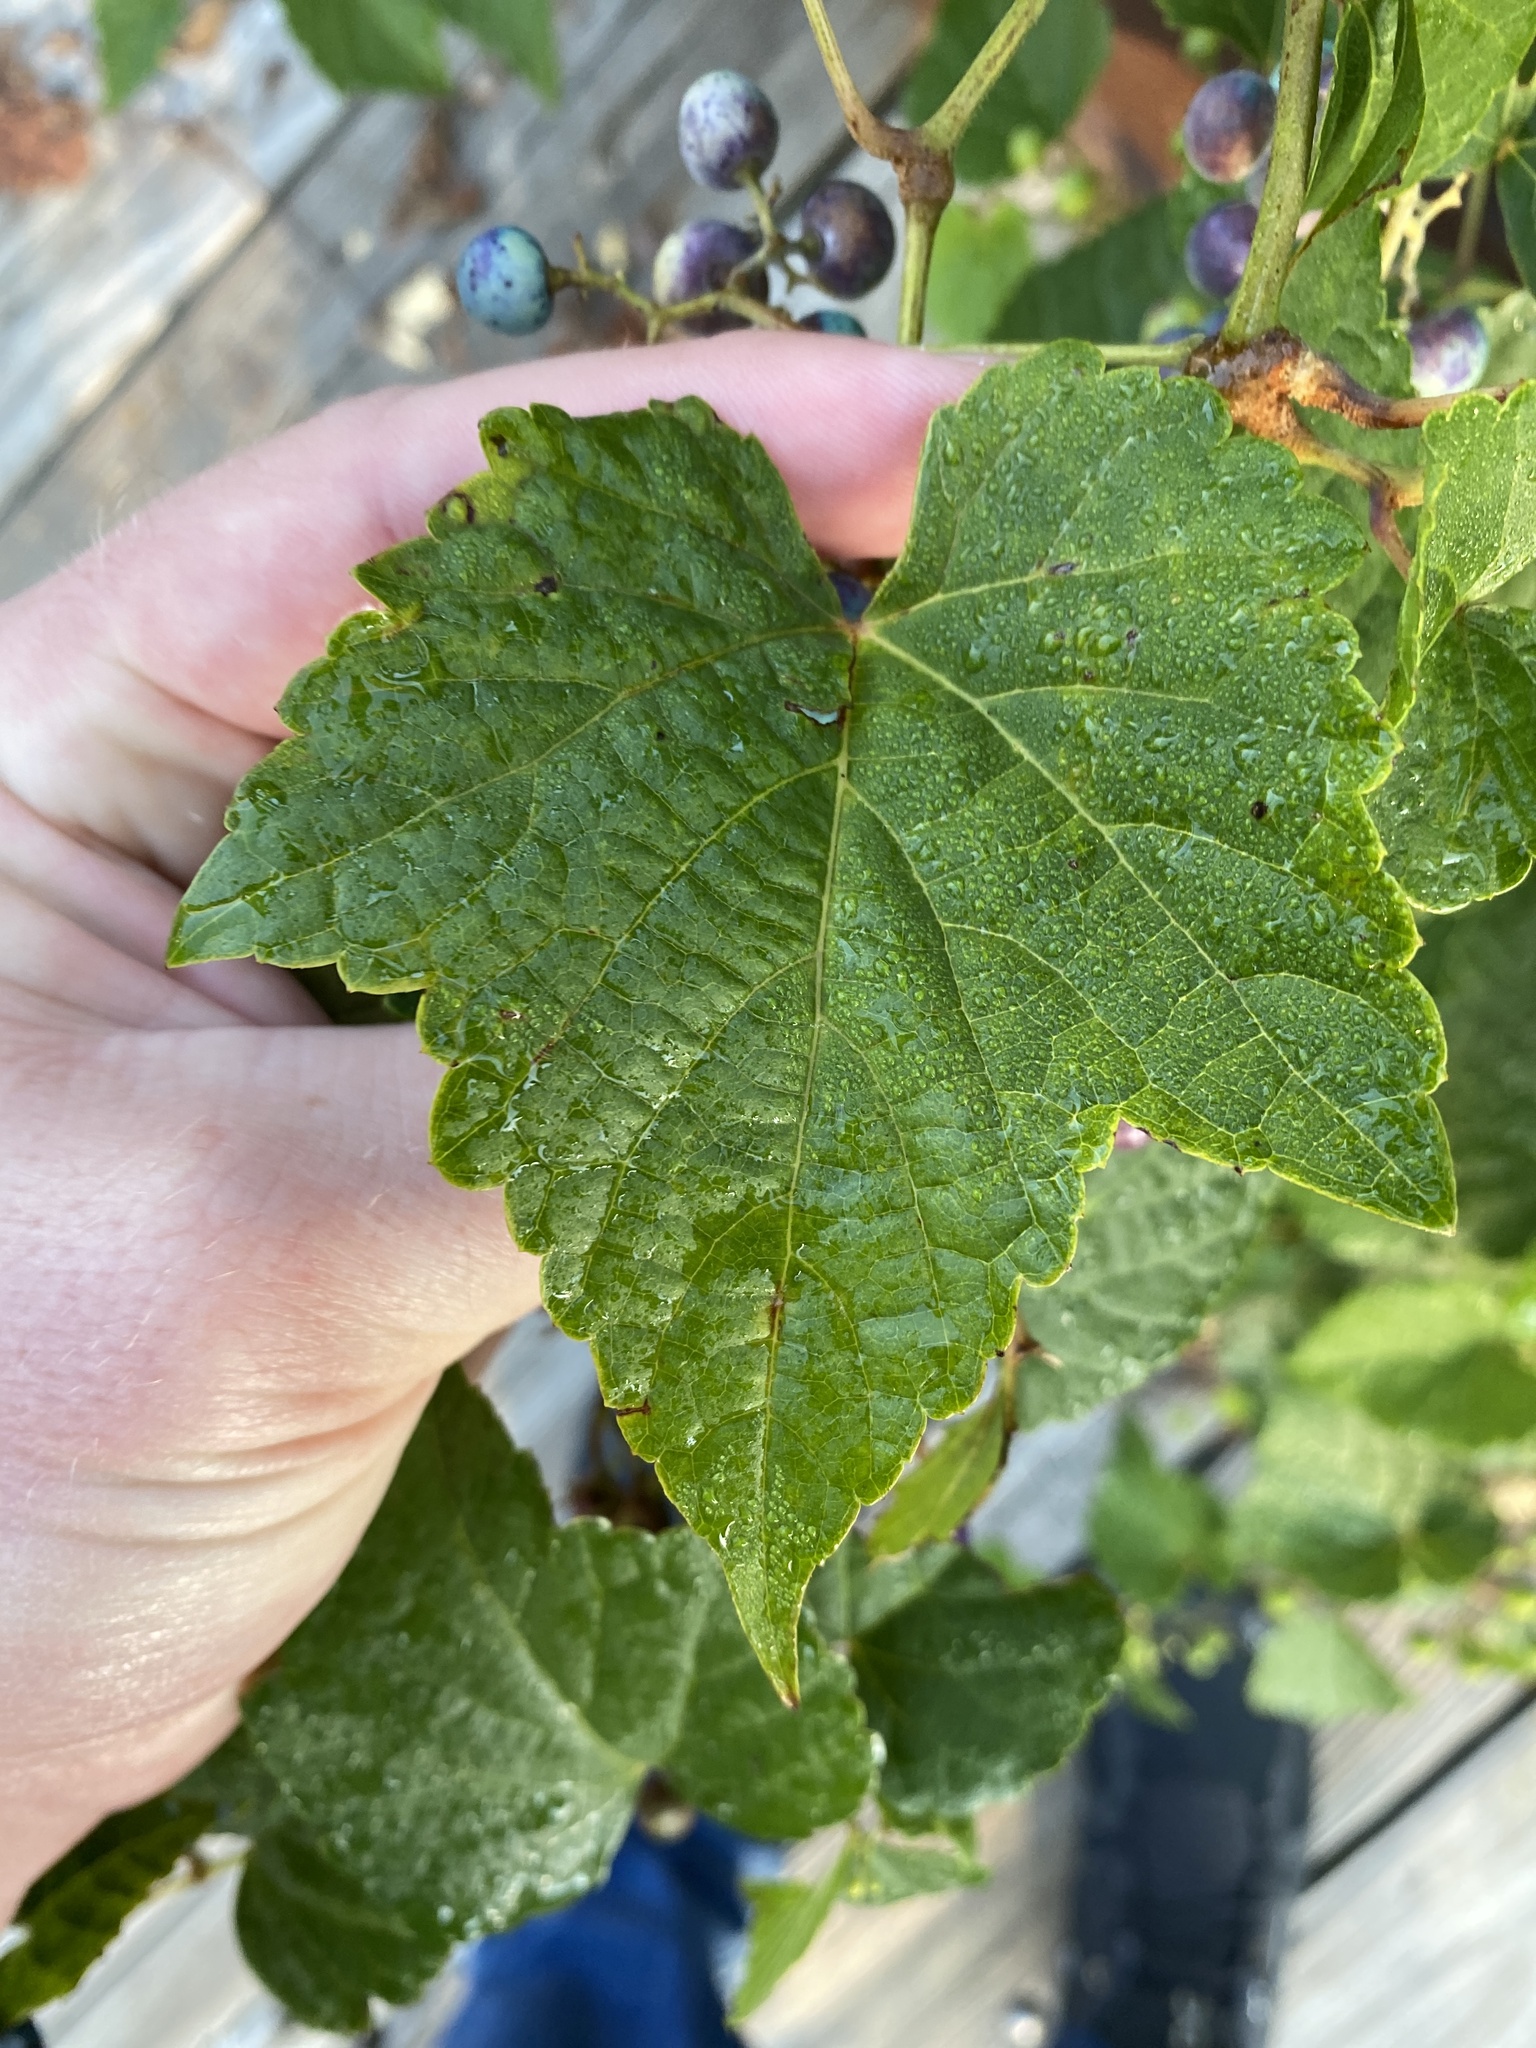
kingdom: Plantae
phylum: Tracheophyta
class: Magnoliopsida
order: Vitales
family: Vitaceae
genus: Ampelopsis
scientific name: Ampelopsis glandulosa
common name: Amur peppervine
